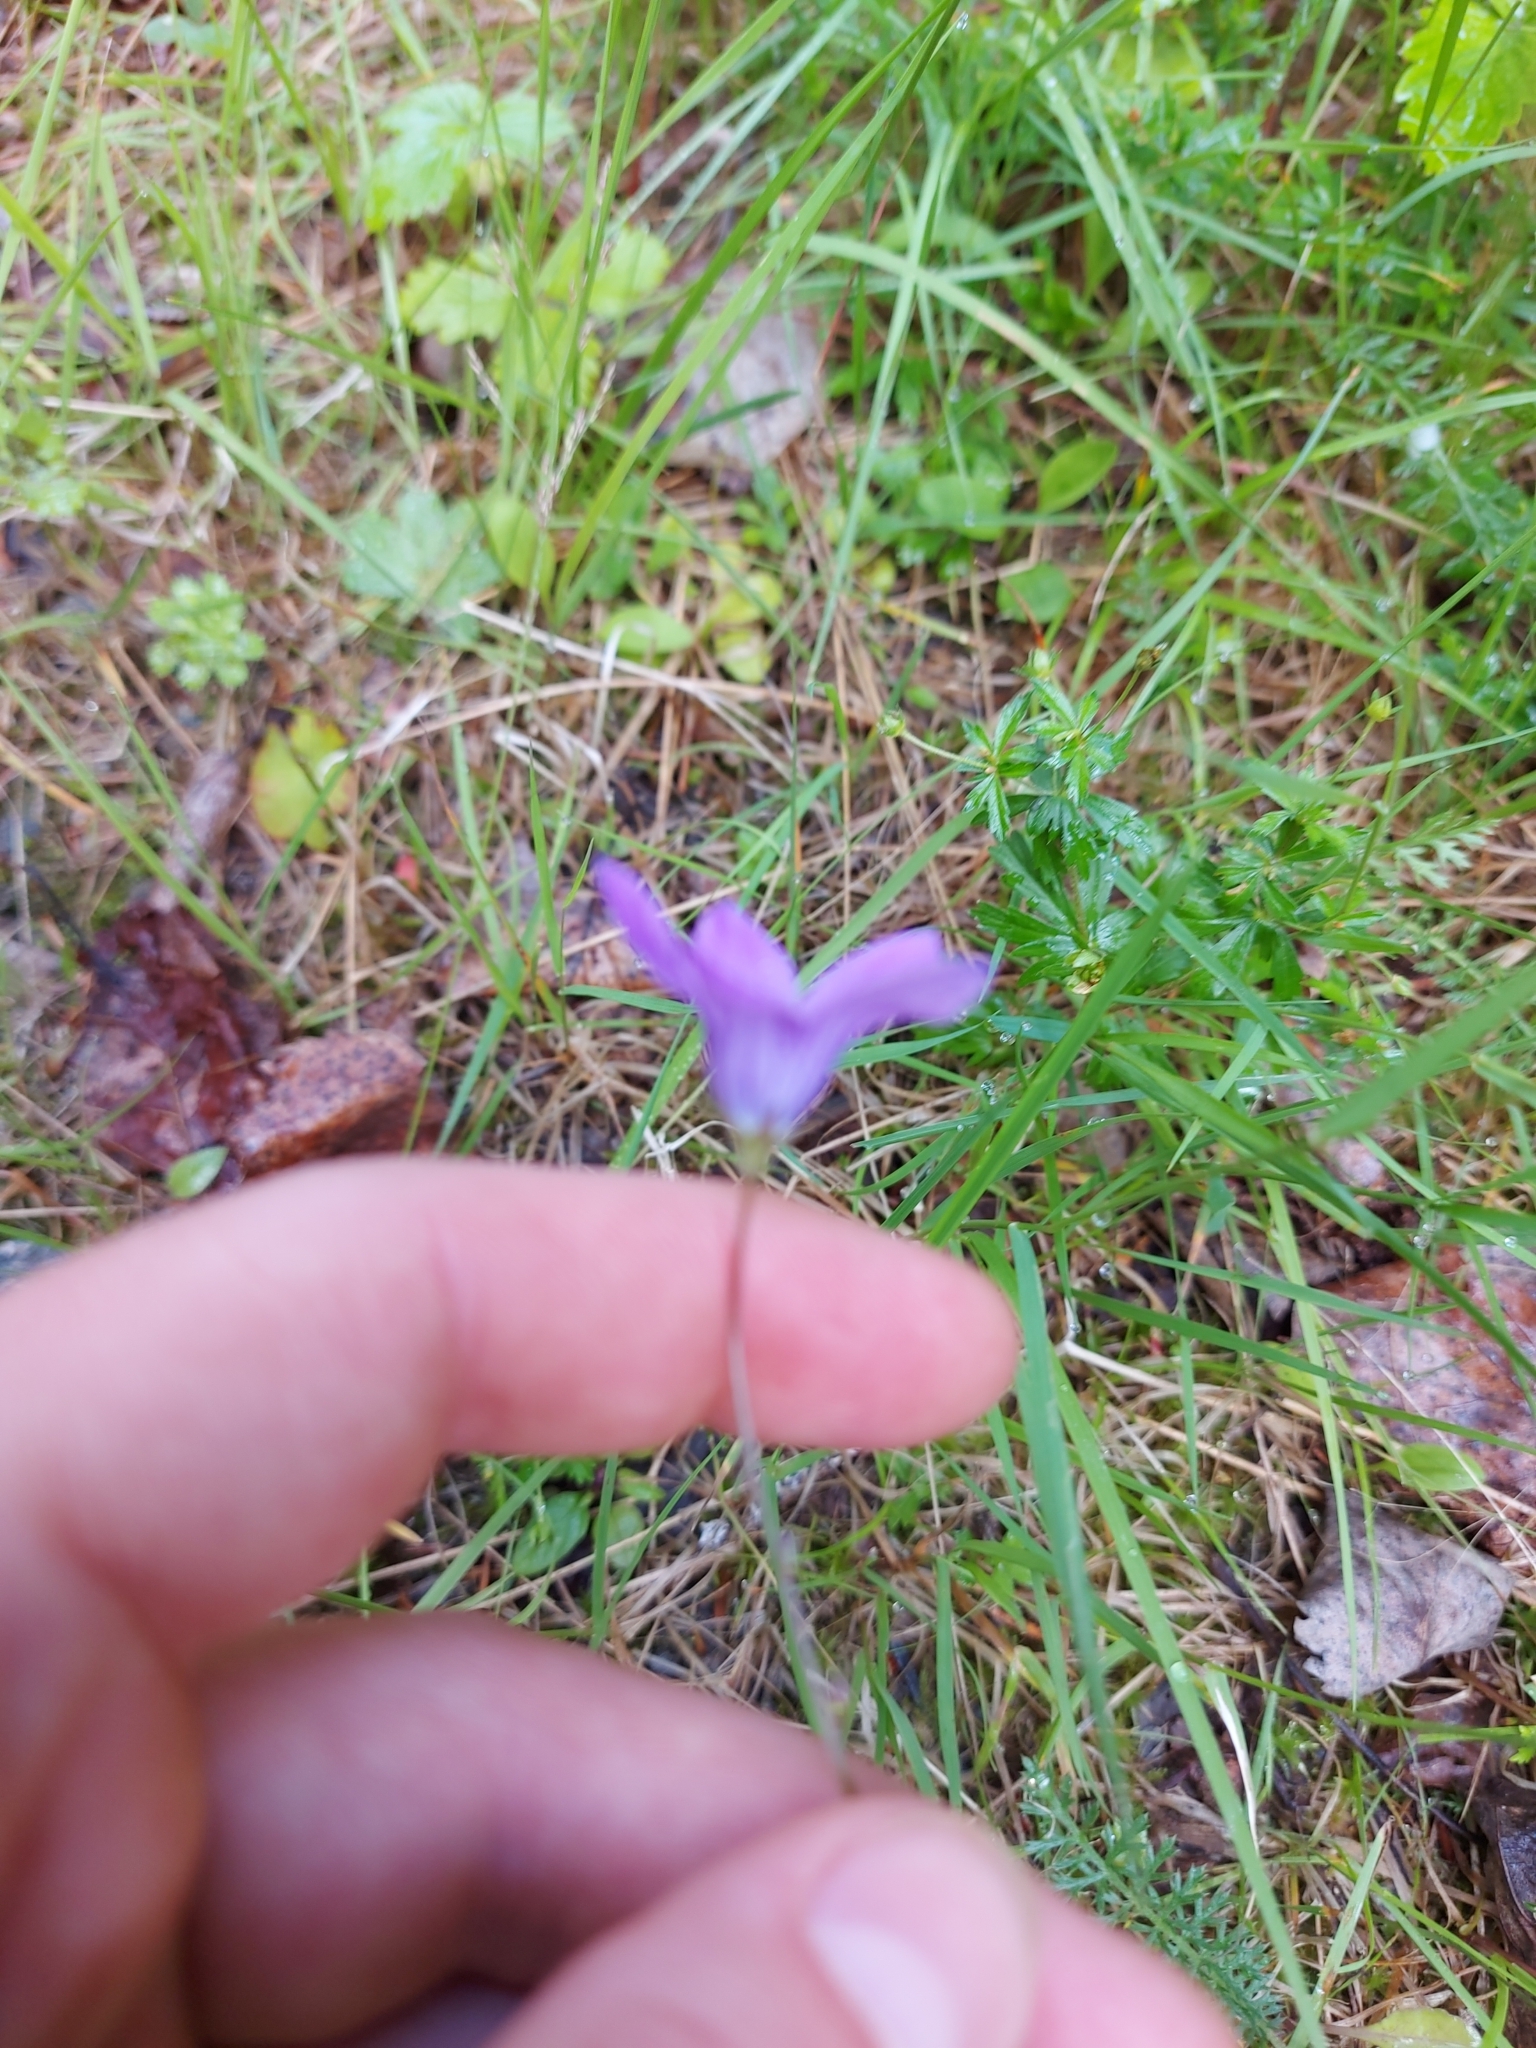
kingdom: Plantae
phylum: Tracheophyta
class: Magnoliopsida
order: Asterales
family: Campanulaceae
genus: Campanula
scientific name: Campanula patula
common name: Spreading bellflower
